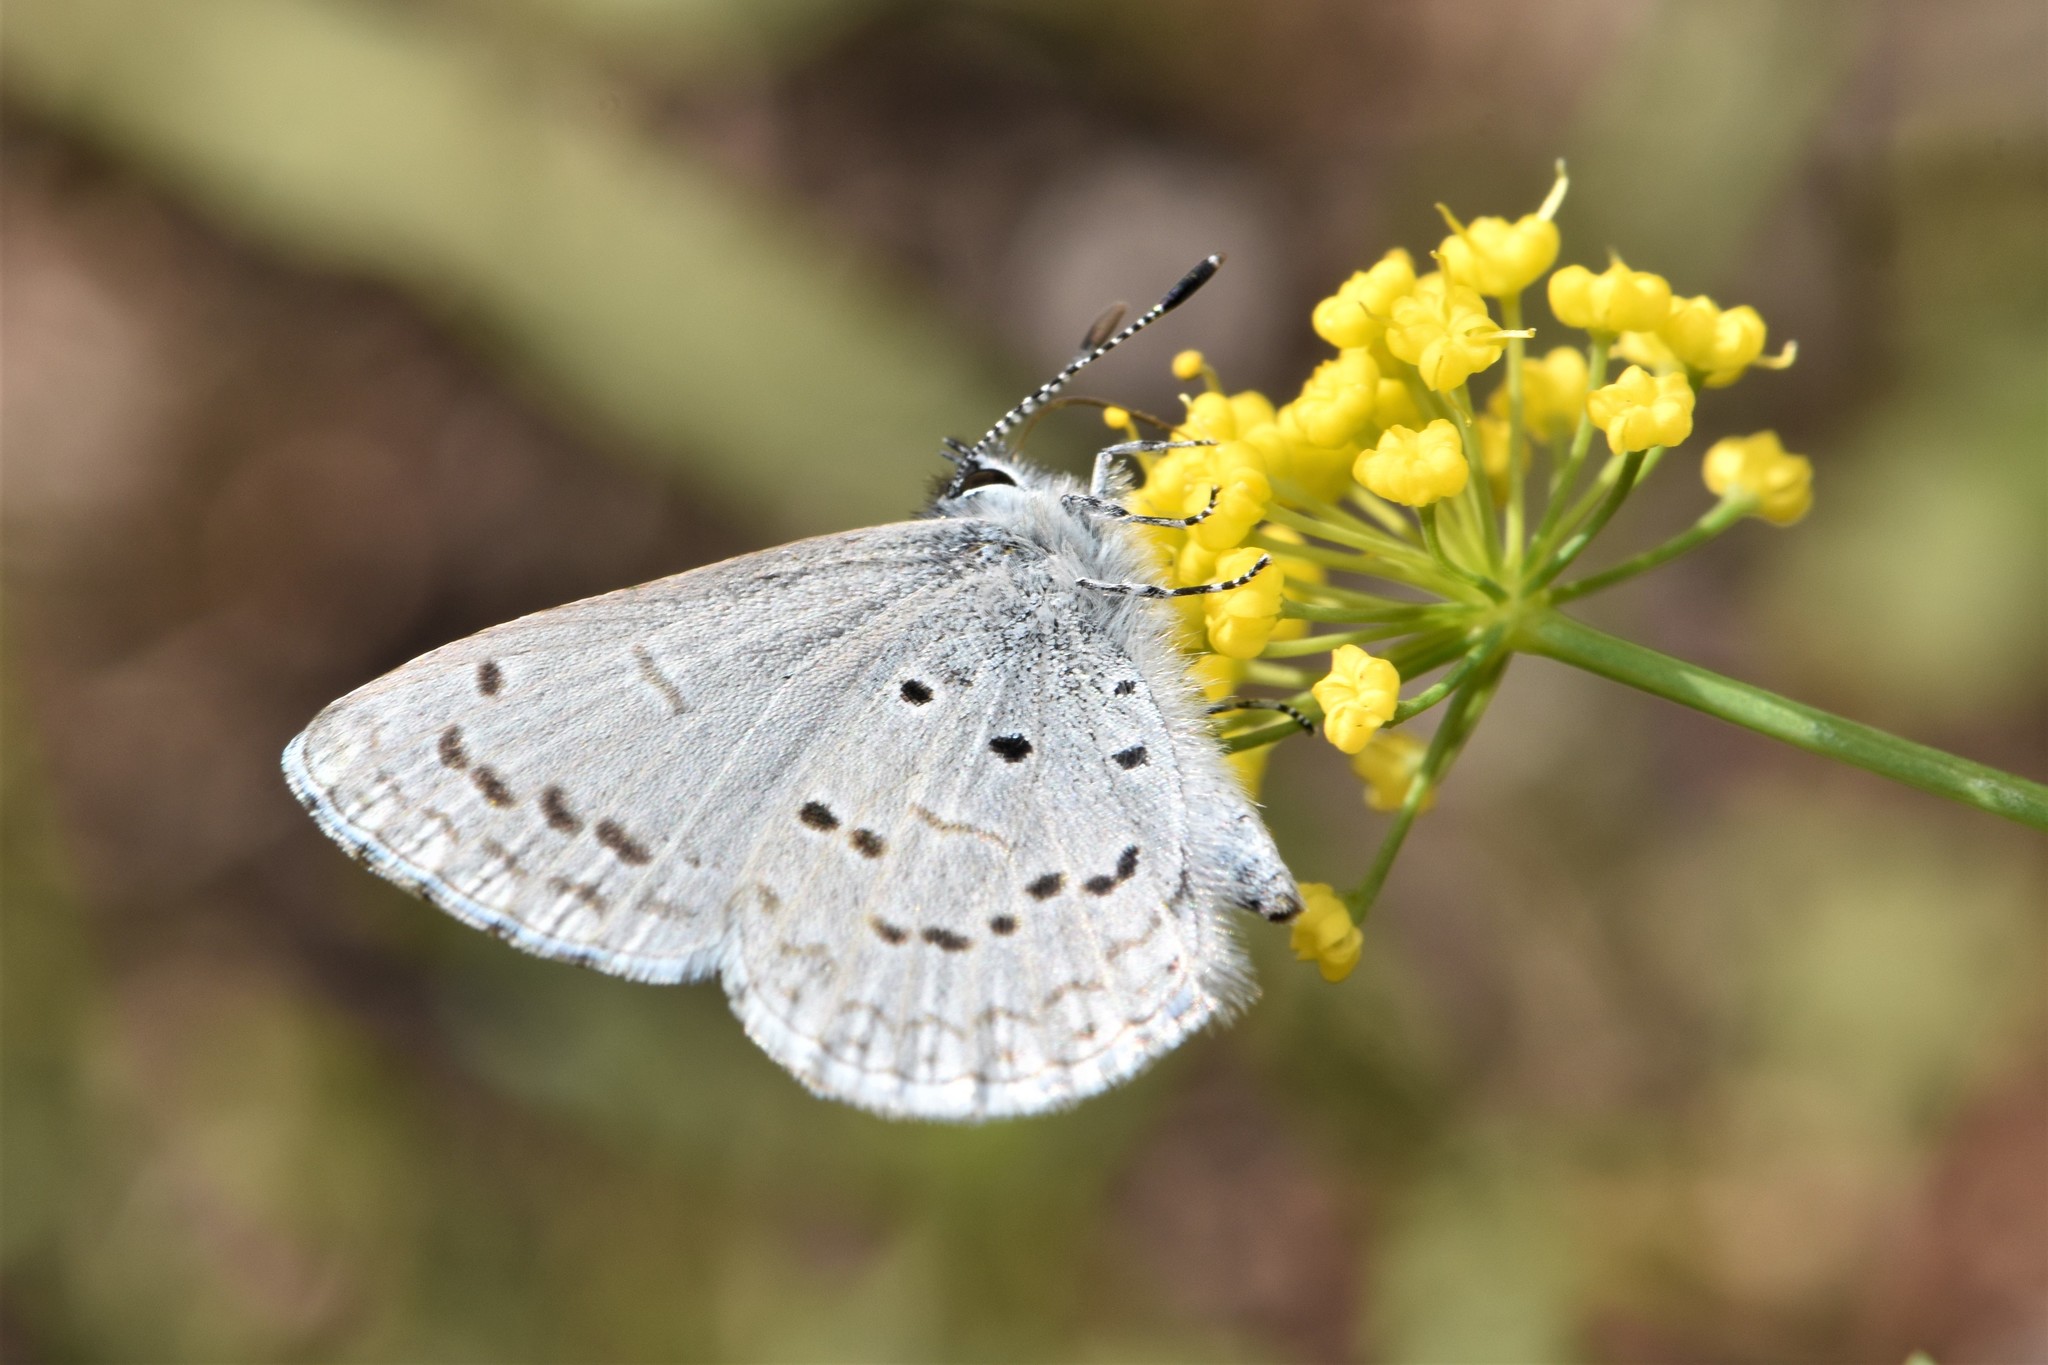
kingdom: Animalia
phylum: Arthropoda
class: Insecta
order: Lepidoptera
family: Lycaenidae
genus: Celastrina
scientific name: Celastrina ladon
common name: Spring azure
